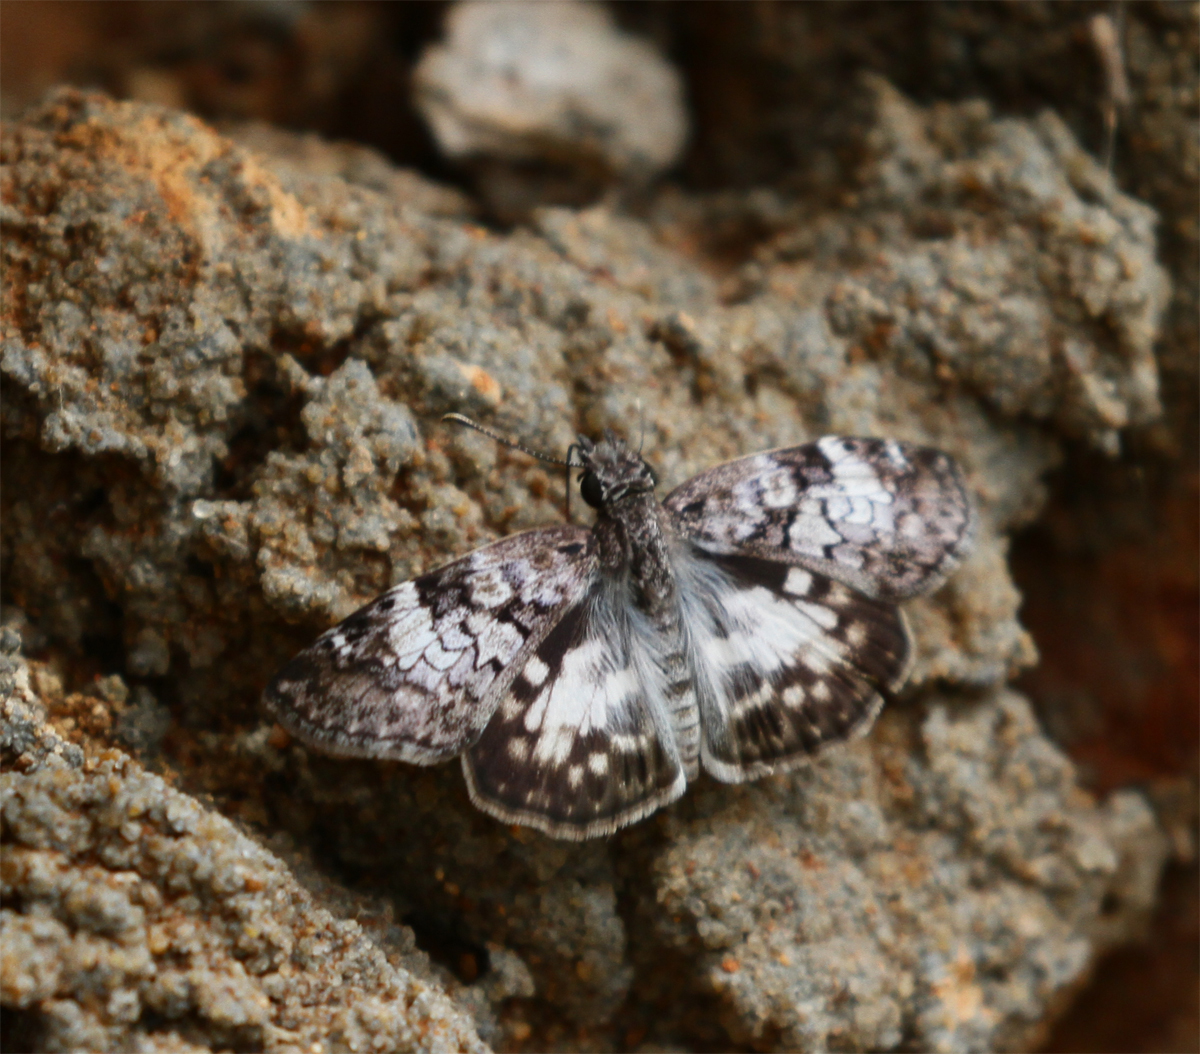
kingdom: Animalia
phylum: Arthropoda
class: Insecta
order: Lepidoptera
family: Hesperiidae
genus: Chiomara
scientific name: Chiomara asychis
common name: White-patterned skipper
